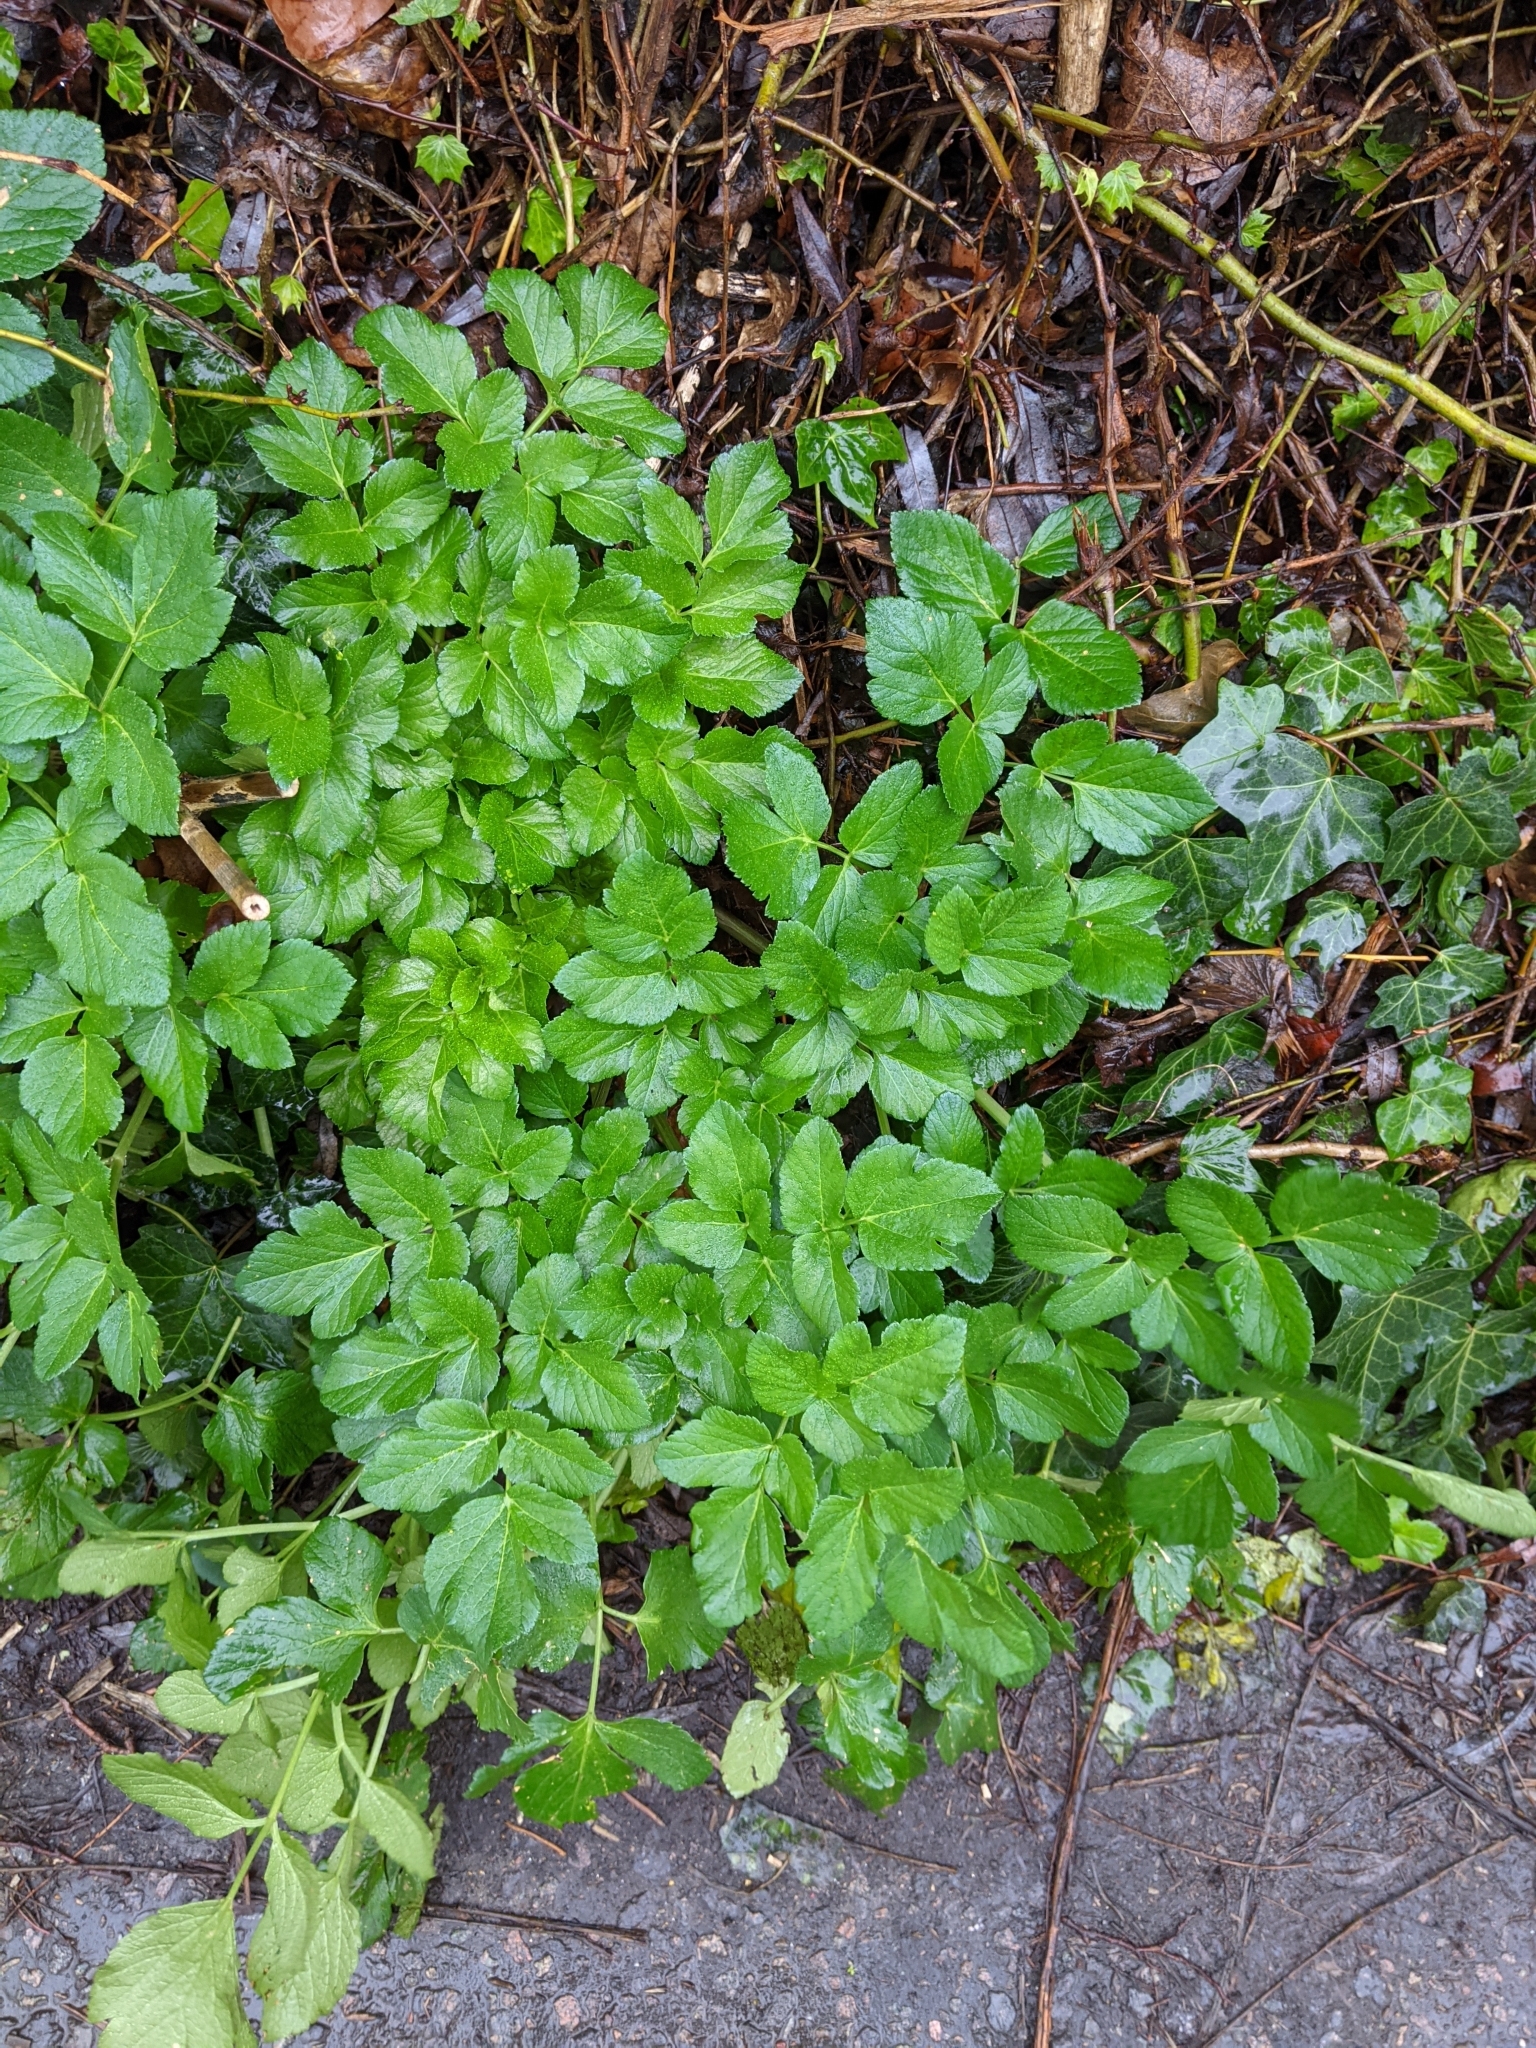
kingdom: Plantae
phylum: Tracheophyta
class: Magnoliopsida
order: Apiales
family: Apiaceae
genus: Smyrnium
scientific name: Smyrnium olusatrum
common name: Alexanders
